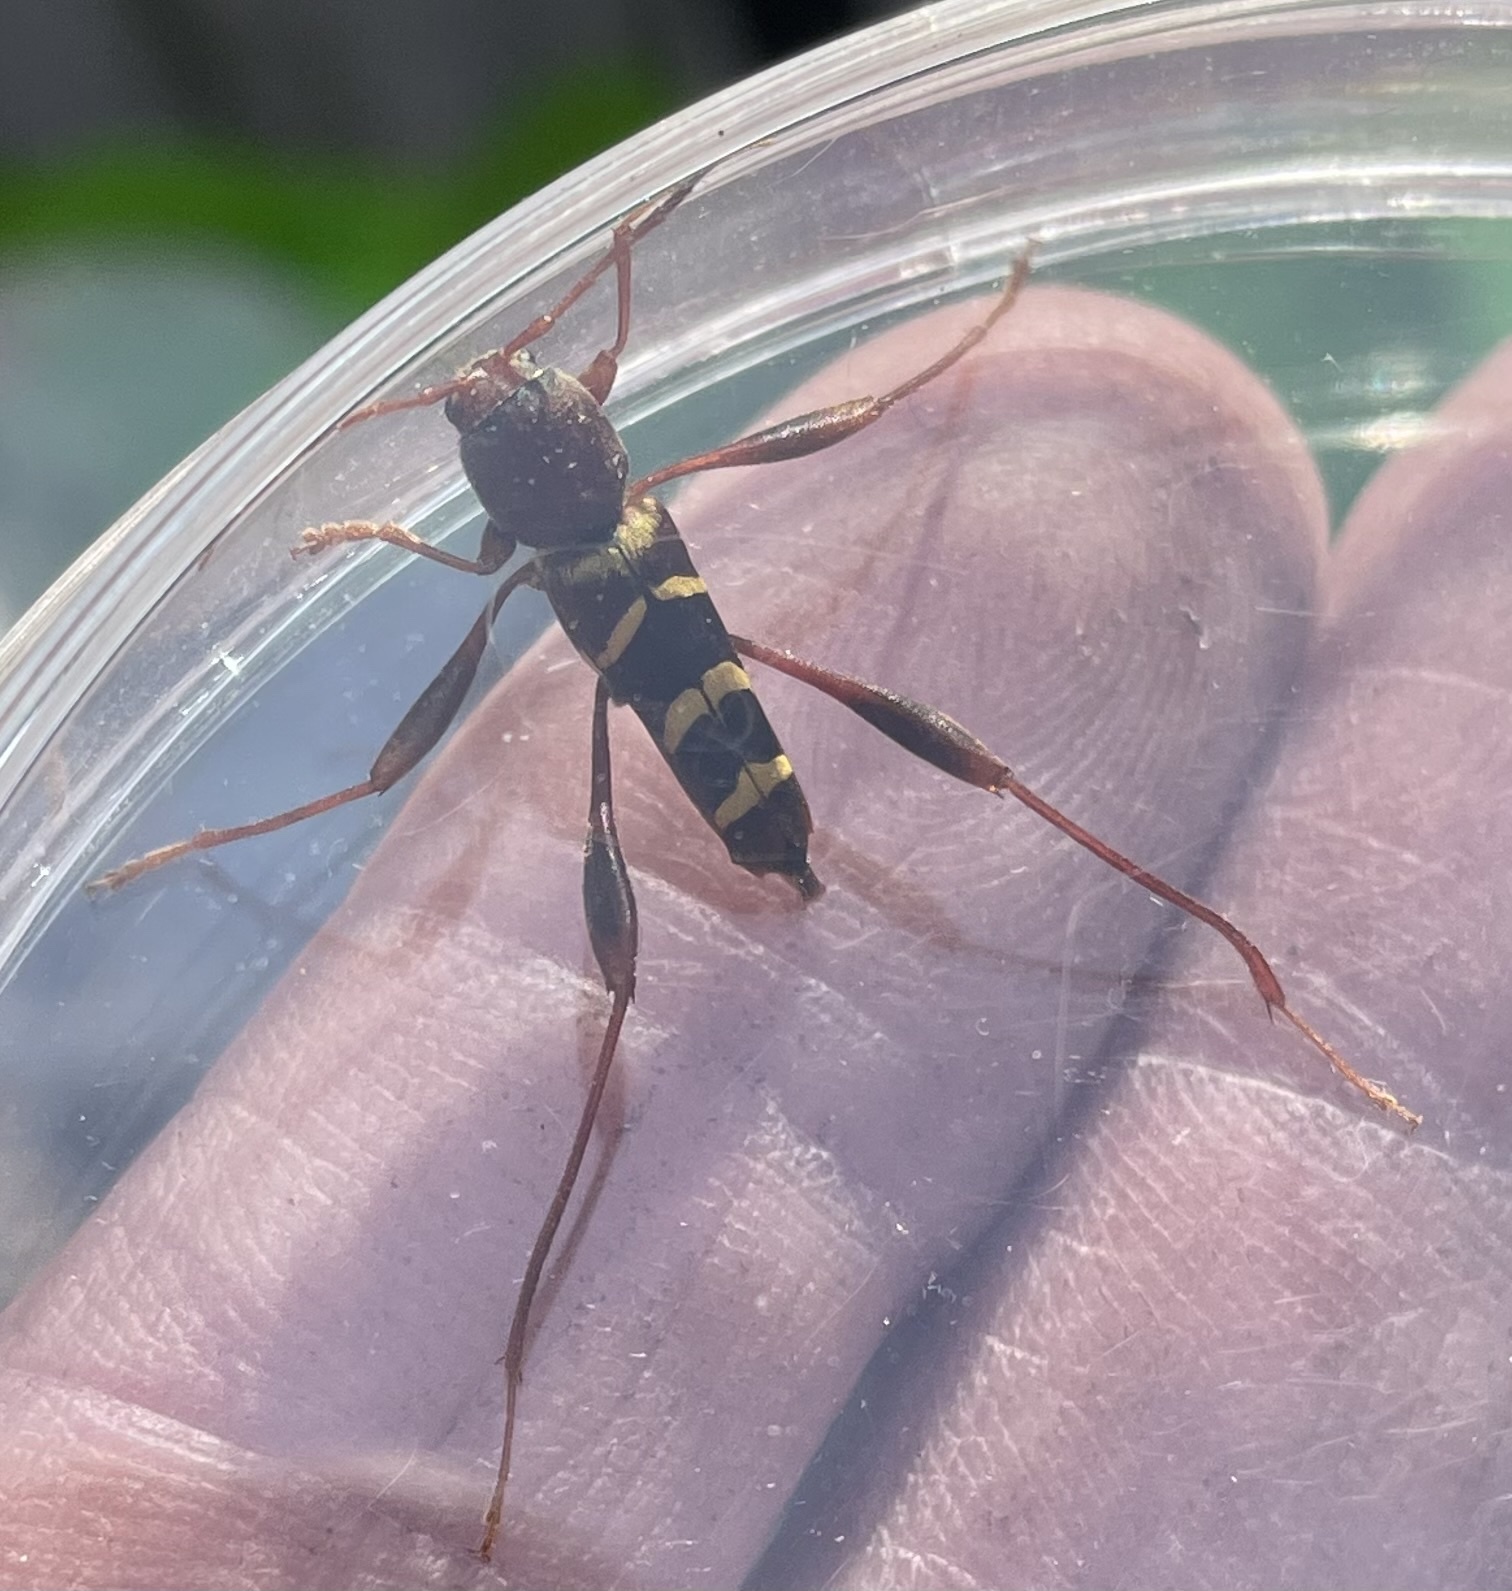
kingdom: Animalia
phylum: Arthropoda
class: Insecta
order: Coleoptera
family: Cerambycidae
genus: Neoclytus
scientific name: Neoclytus acuminatus
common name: Read-headed ash borer
